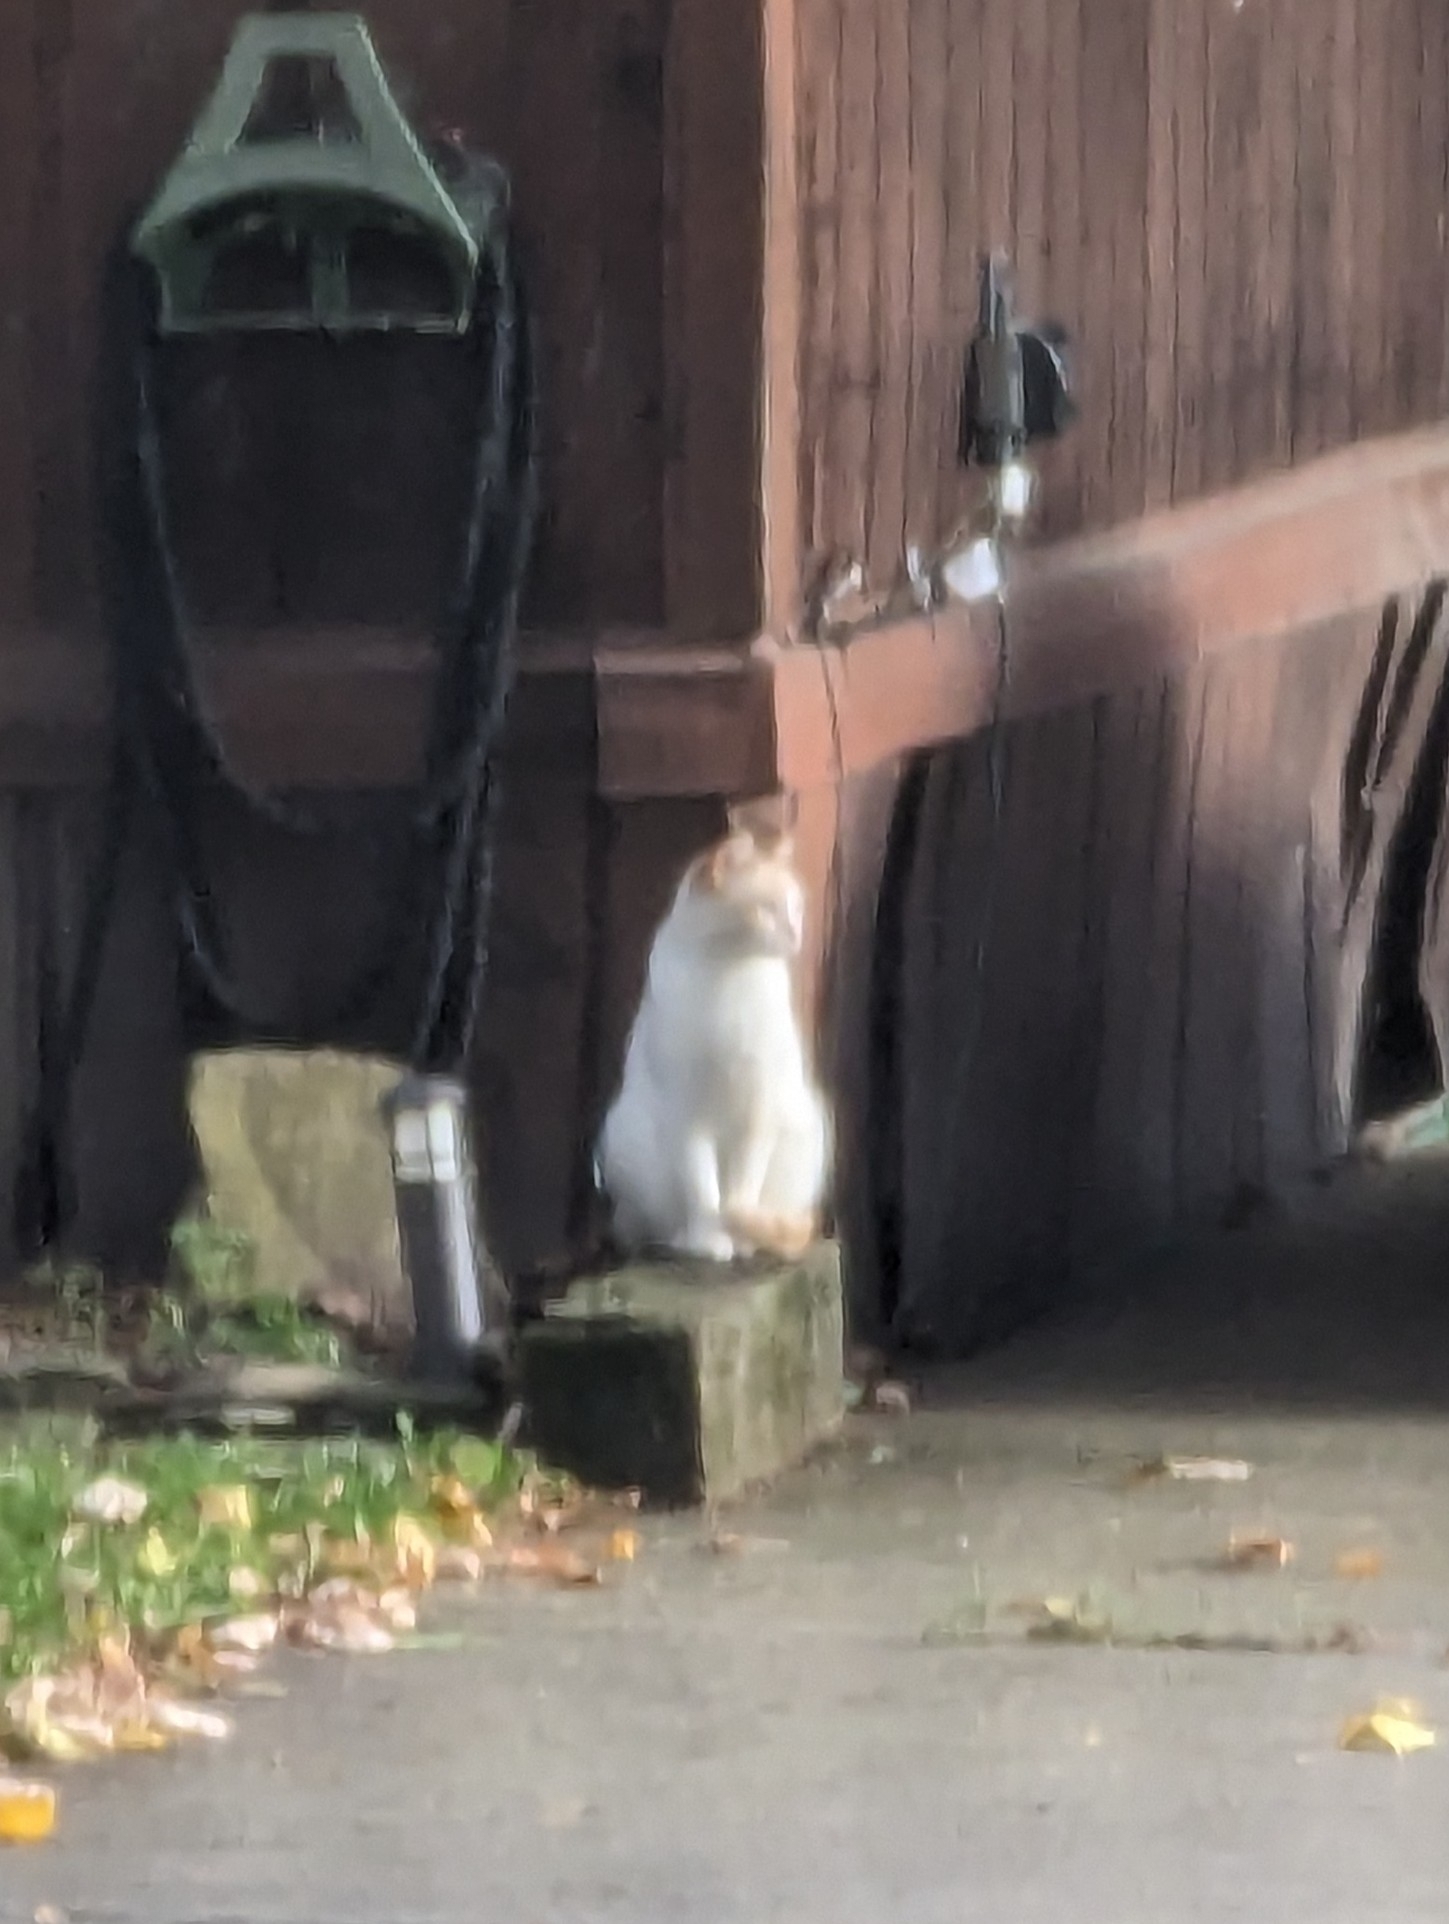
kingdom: Animalia
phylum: Chordata
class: Mammalia
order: Carnivora
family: Felidae
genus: Felis
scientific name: Felis catus
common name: Domestic cat
